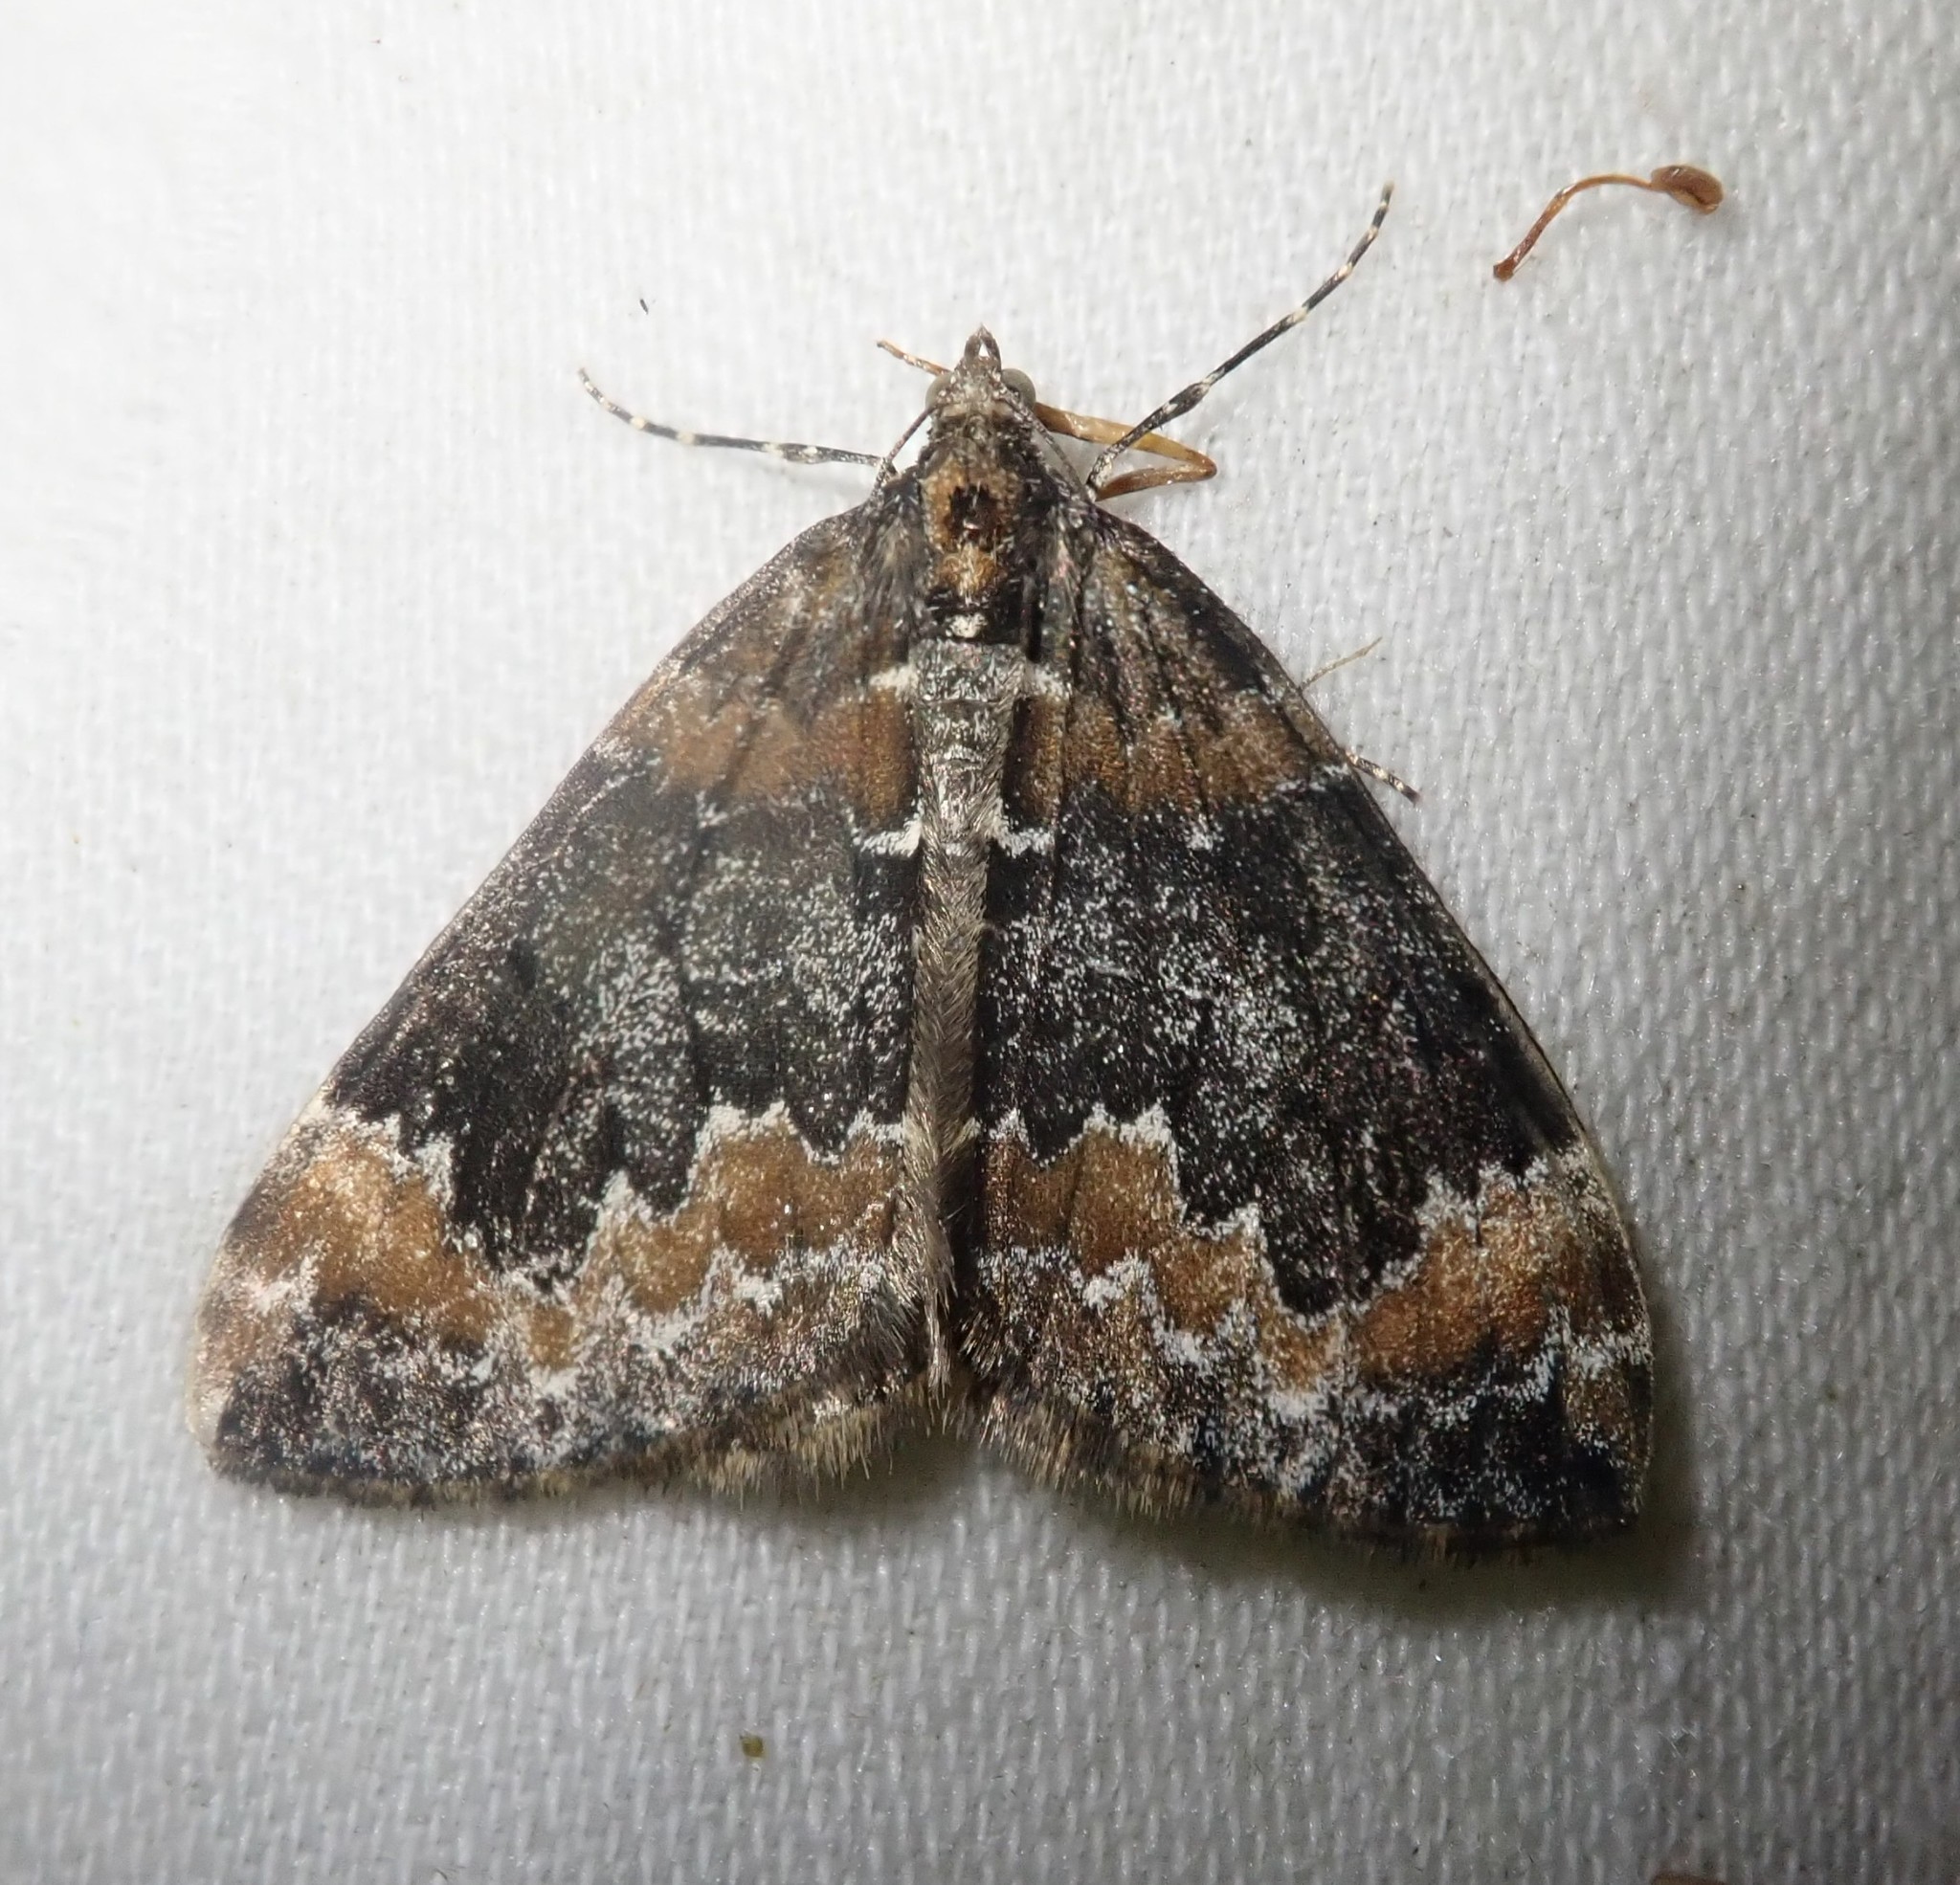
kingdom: Animalia
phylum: Arthropoda
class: Insecta
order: Lepidoptera
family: Geometridae
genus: Dysstroma
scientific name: Dysstroma truncata
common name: Common marbled carpet
